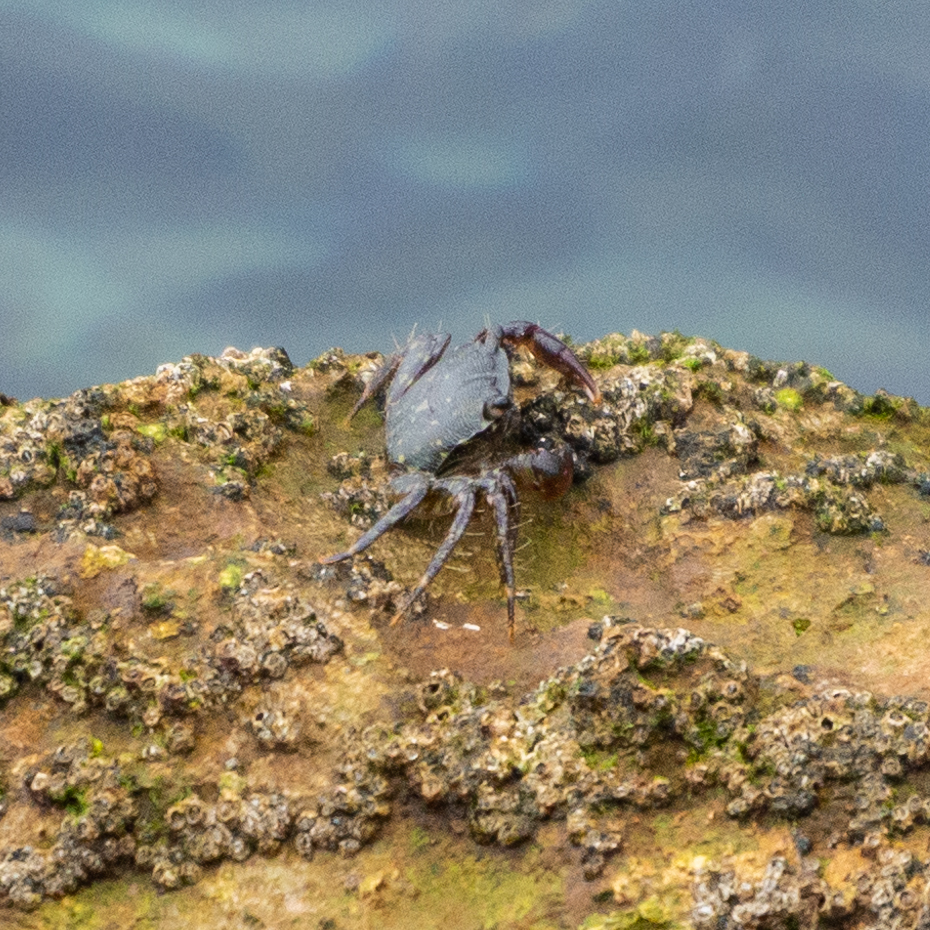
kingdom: Animalia
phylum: Arthropoda
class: Malacostraca
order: Decapoda
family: Grapsidae
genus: Pachygrapsus
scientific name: Pachygrapsus marmoratus
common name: Marbled rock crab
